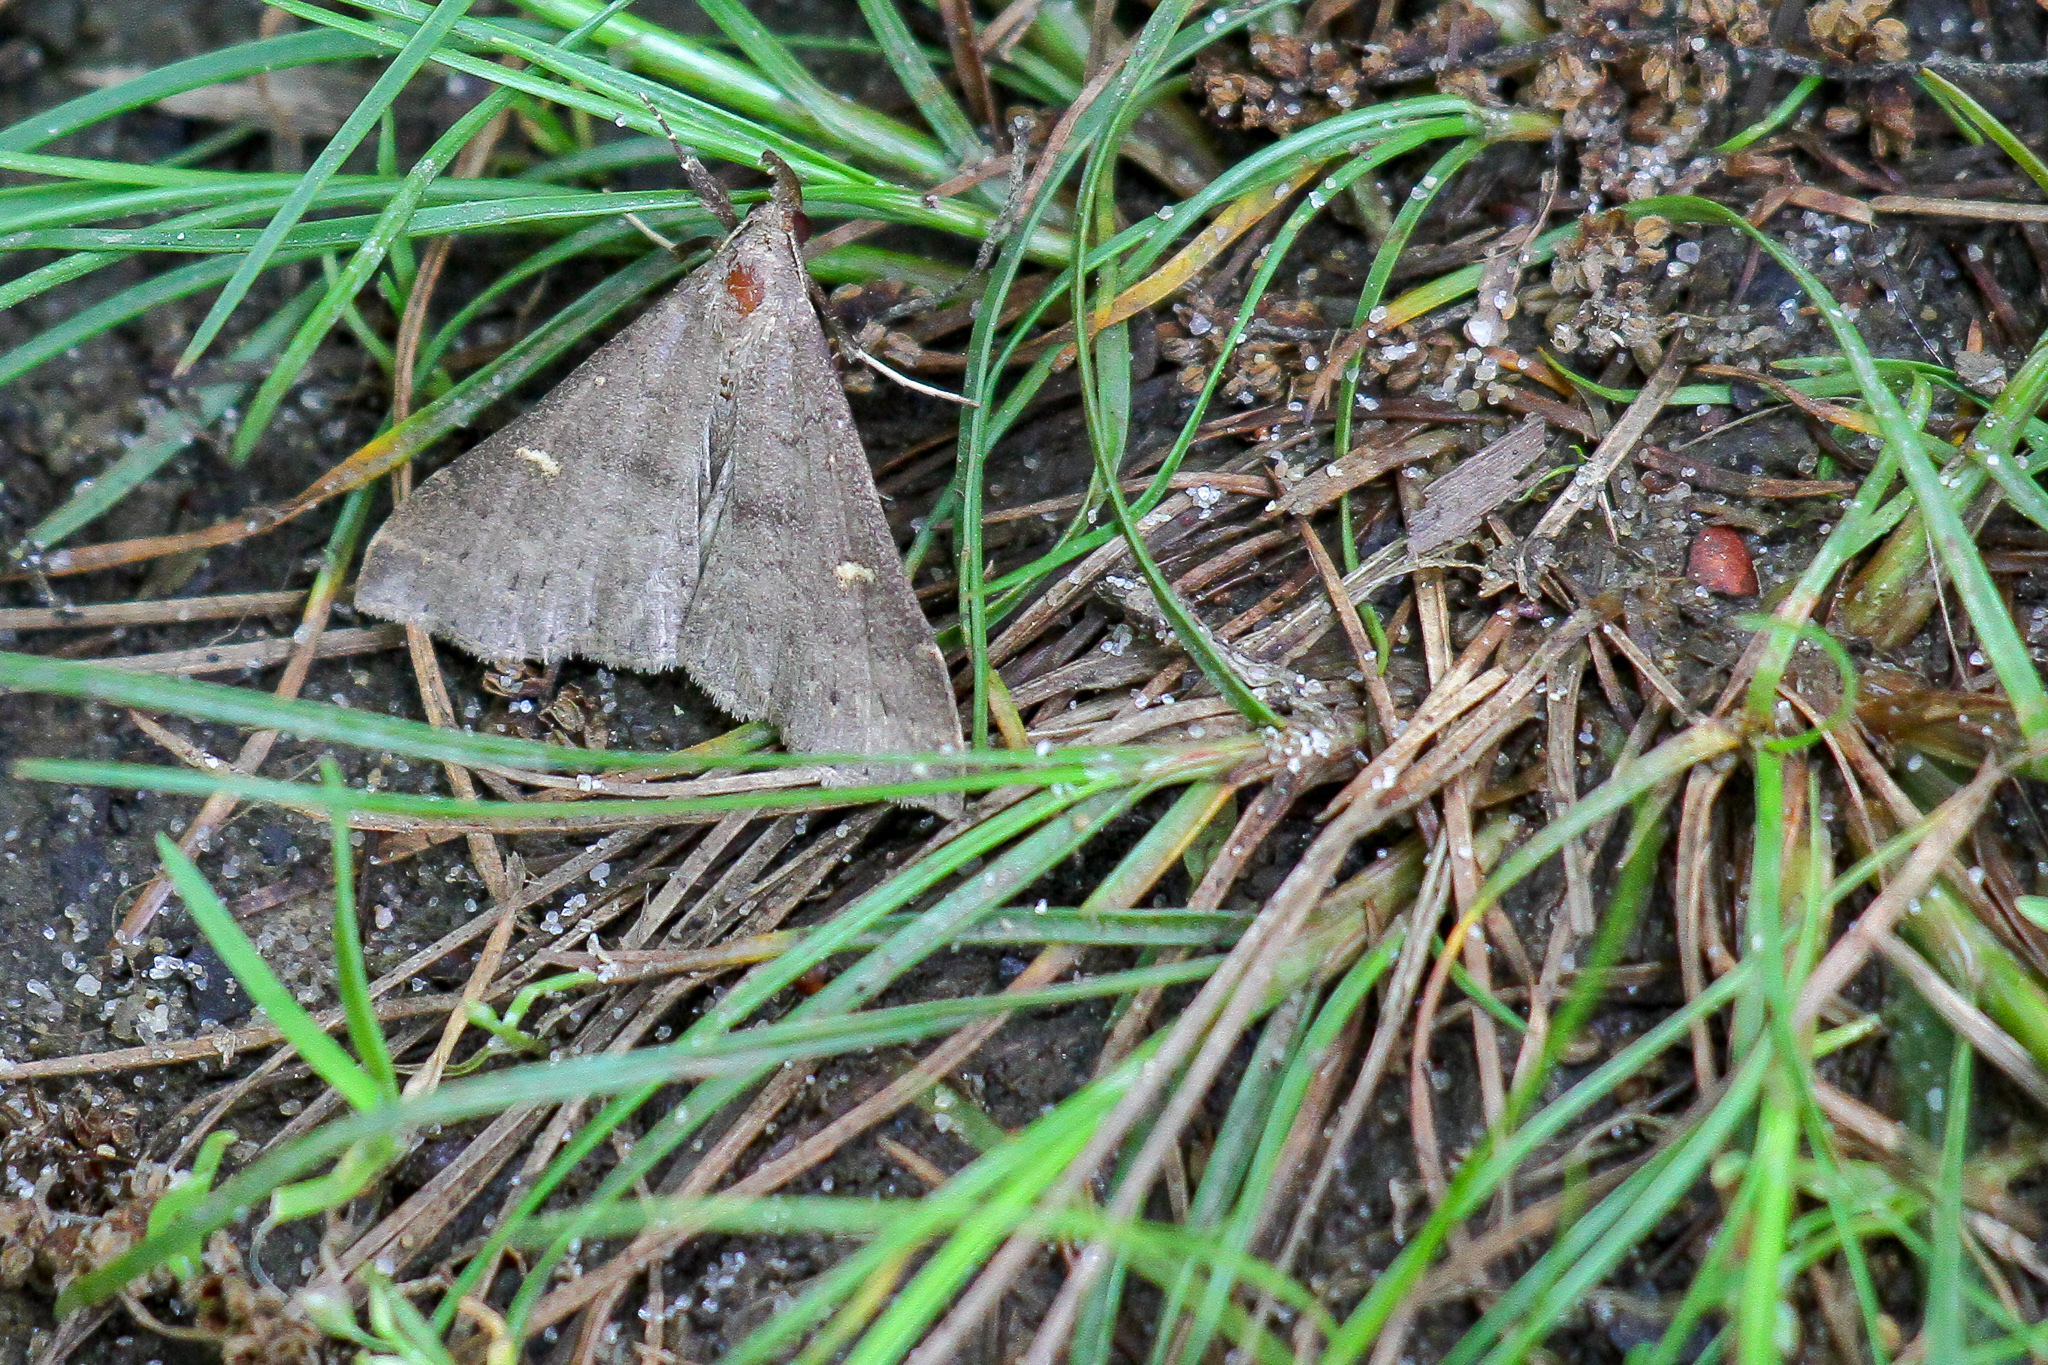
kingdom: Animalia
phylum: Arthropoda
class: Insecta
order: Lepidoptera
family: Erebidae
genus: Renia
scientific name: Renia adspergillus
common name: Speckled renia moth
